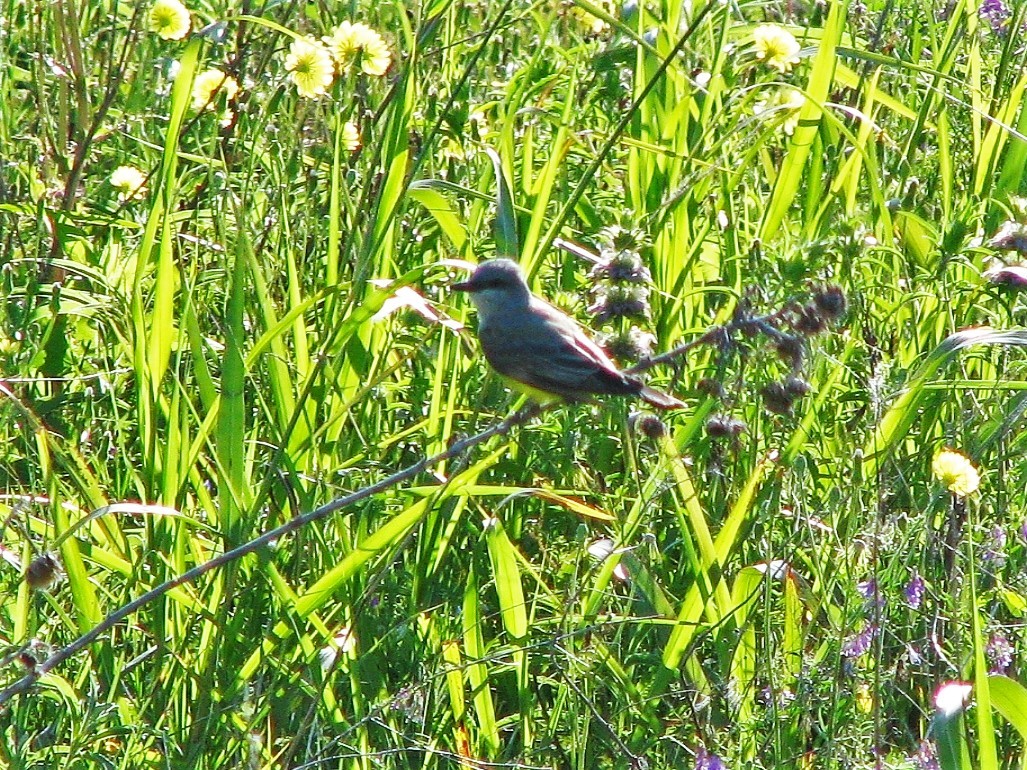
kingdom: Animalia
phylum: Chordata
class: Aves
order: Passeriformes
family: Tyrannidae
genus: Tyrannus
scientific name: Tyrannus verticalis
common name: Western kingbird
